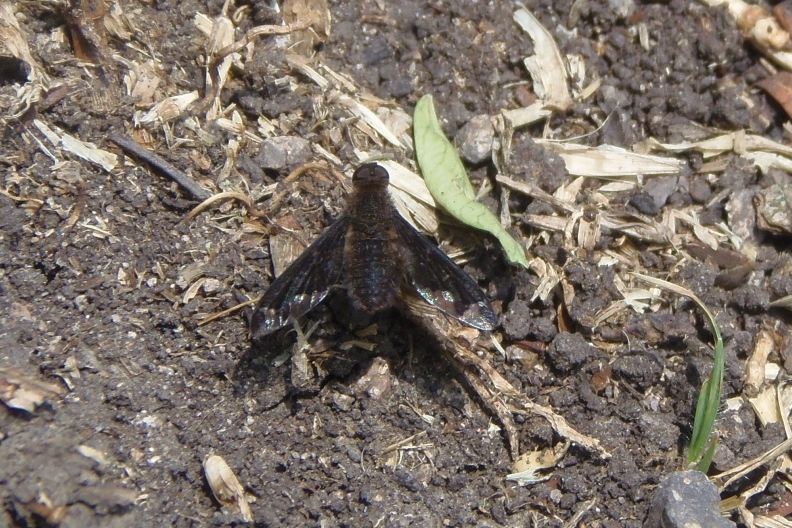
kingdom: Animalia
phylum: Arthropoda
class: Insecta
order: Diptera
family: Bombyliidae
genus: Hemipenthes
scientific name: Hemipenthes blanchardiana
